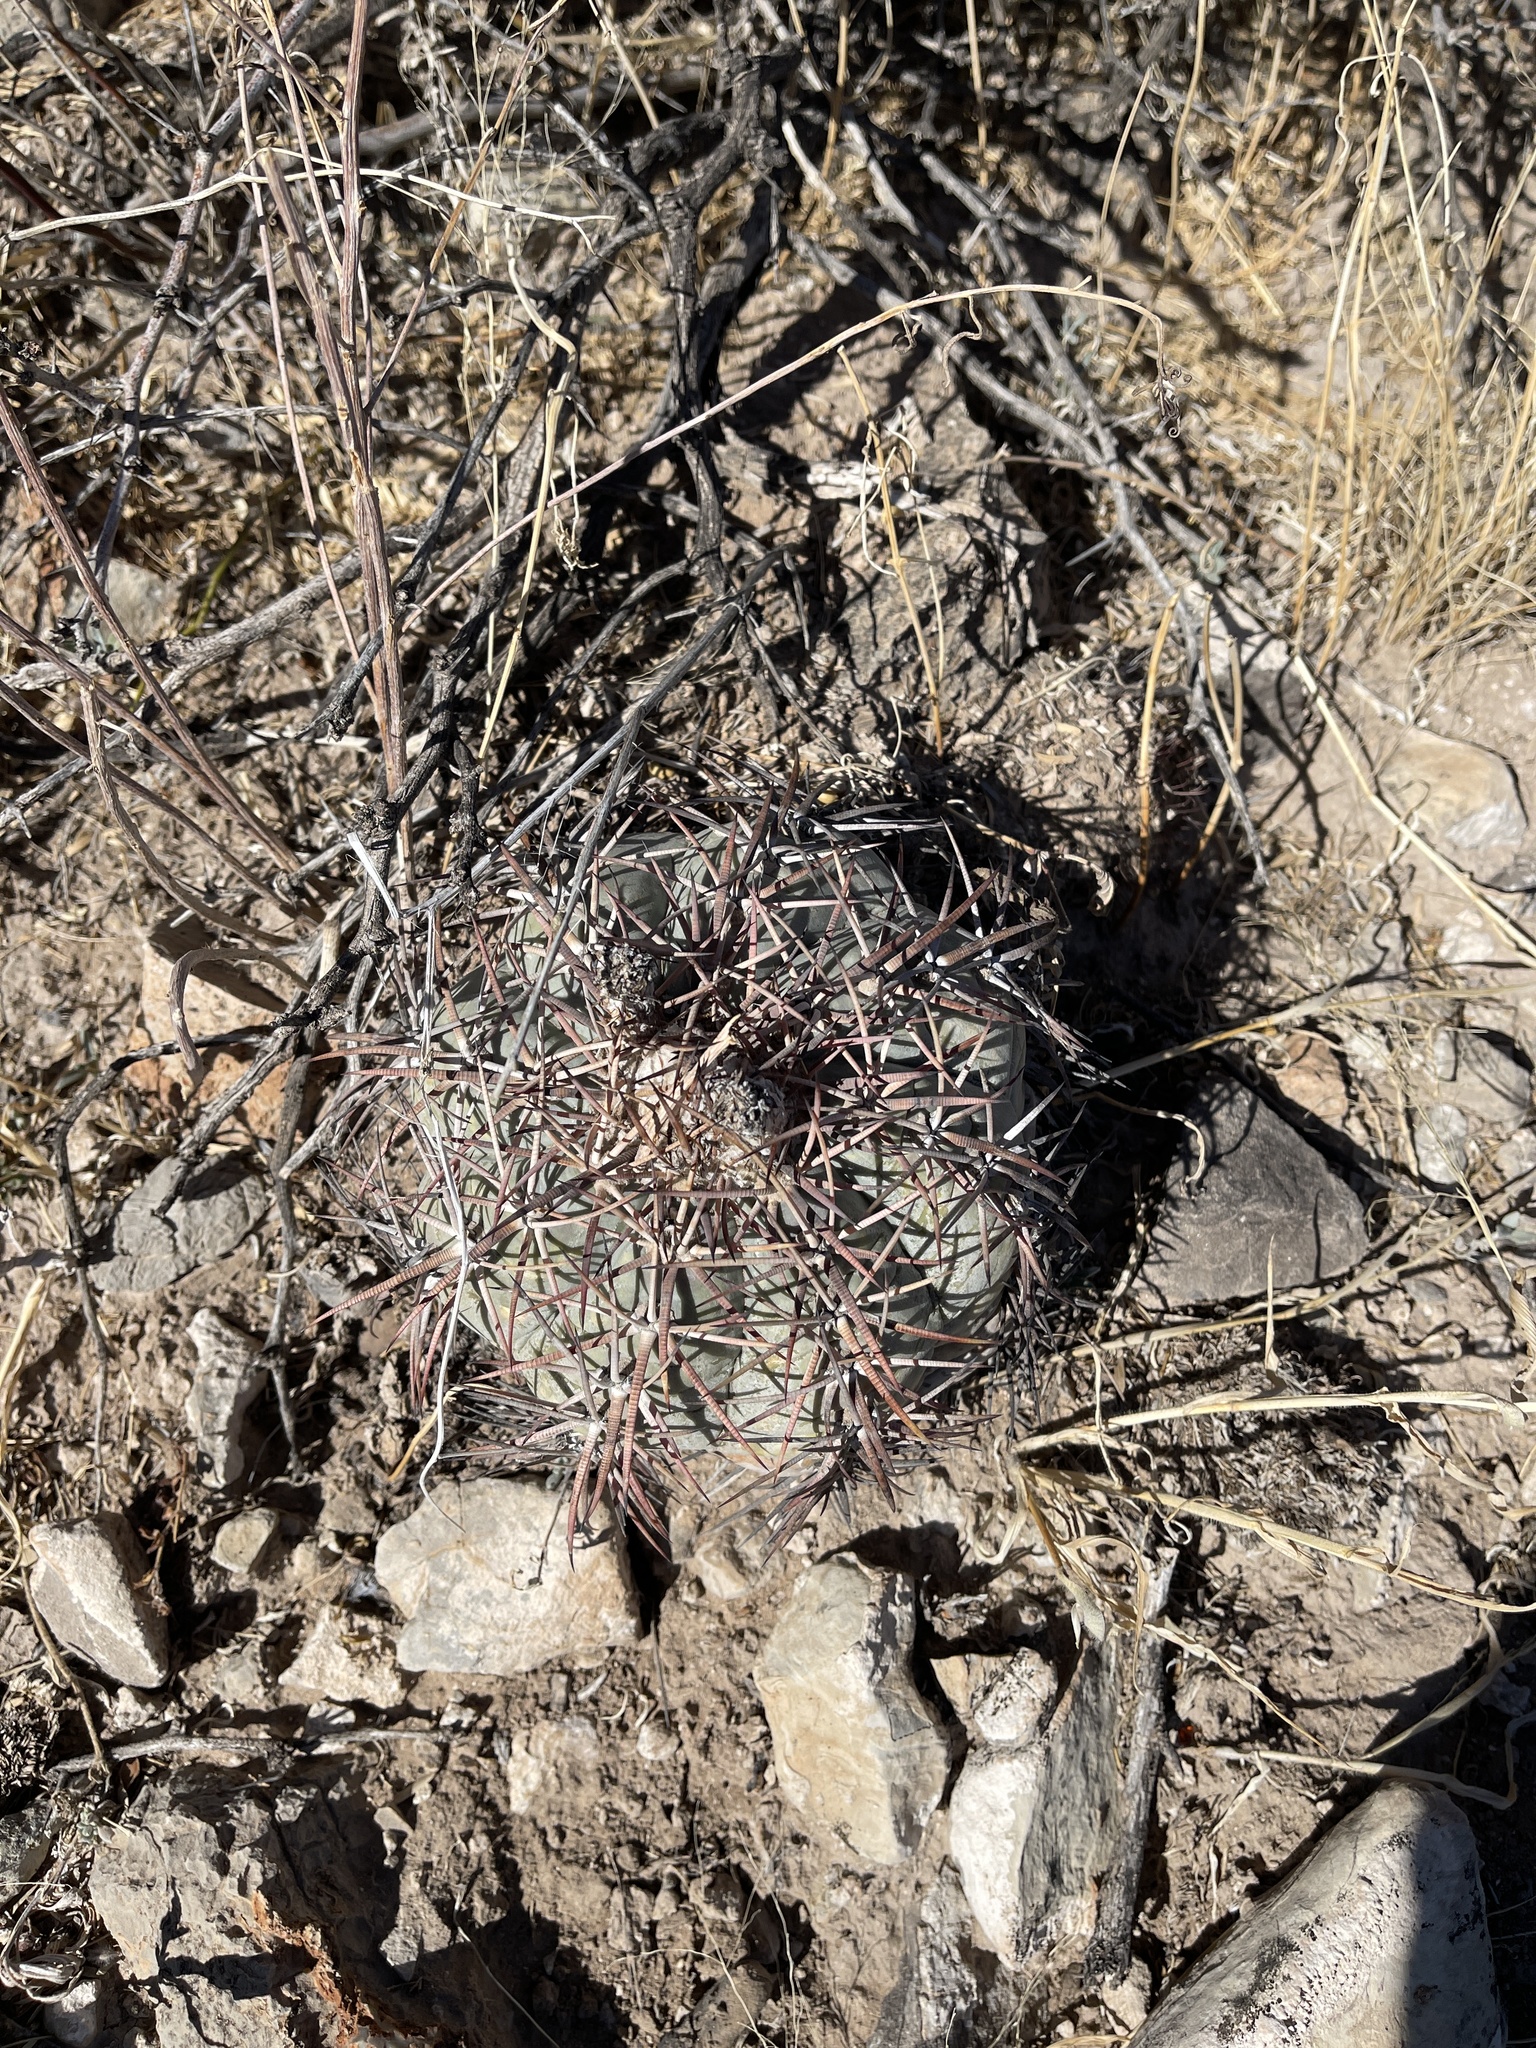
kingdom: Plantae
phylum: Tracheophyta
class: Magnoliopsida
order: Caryophyllales
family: Cactaceae
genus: Echinocactus
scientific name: Echinocactus horizonthalonius
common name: Devilshead
